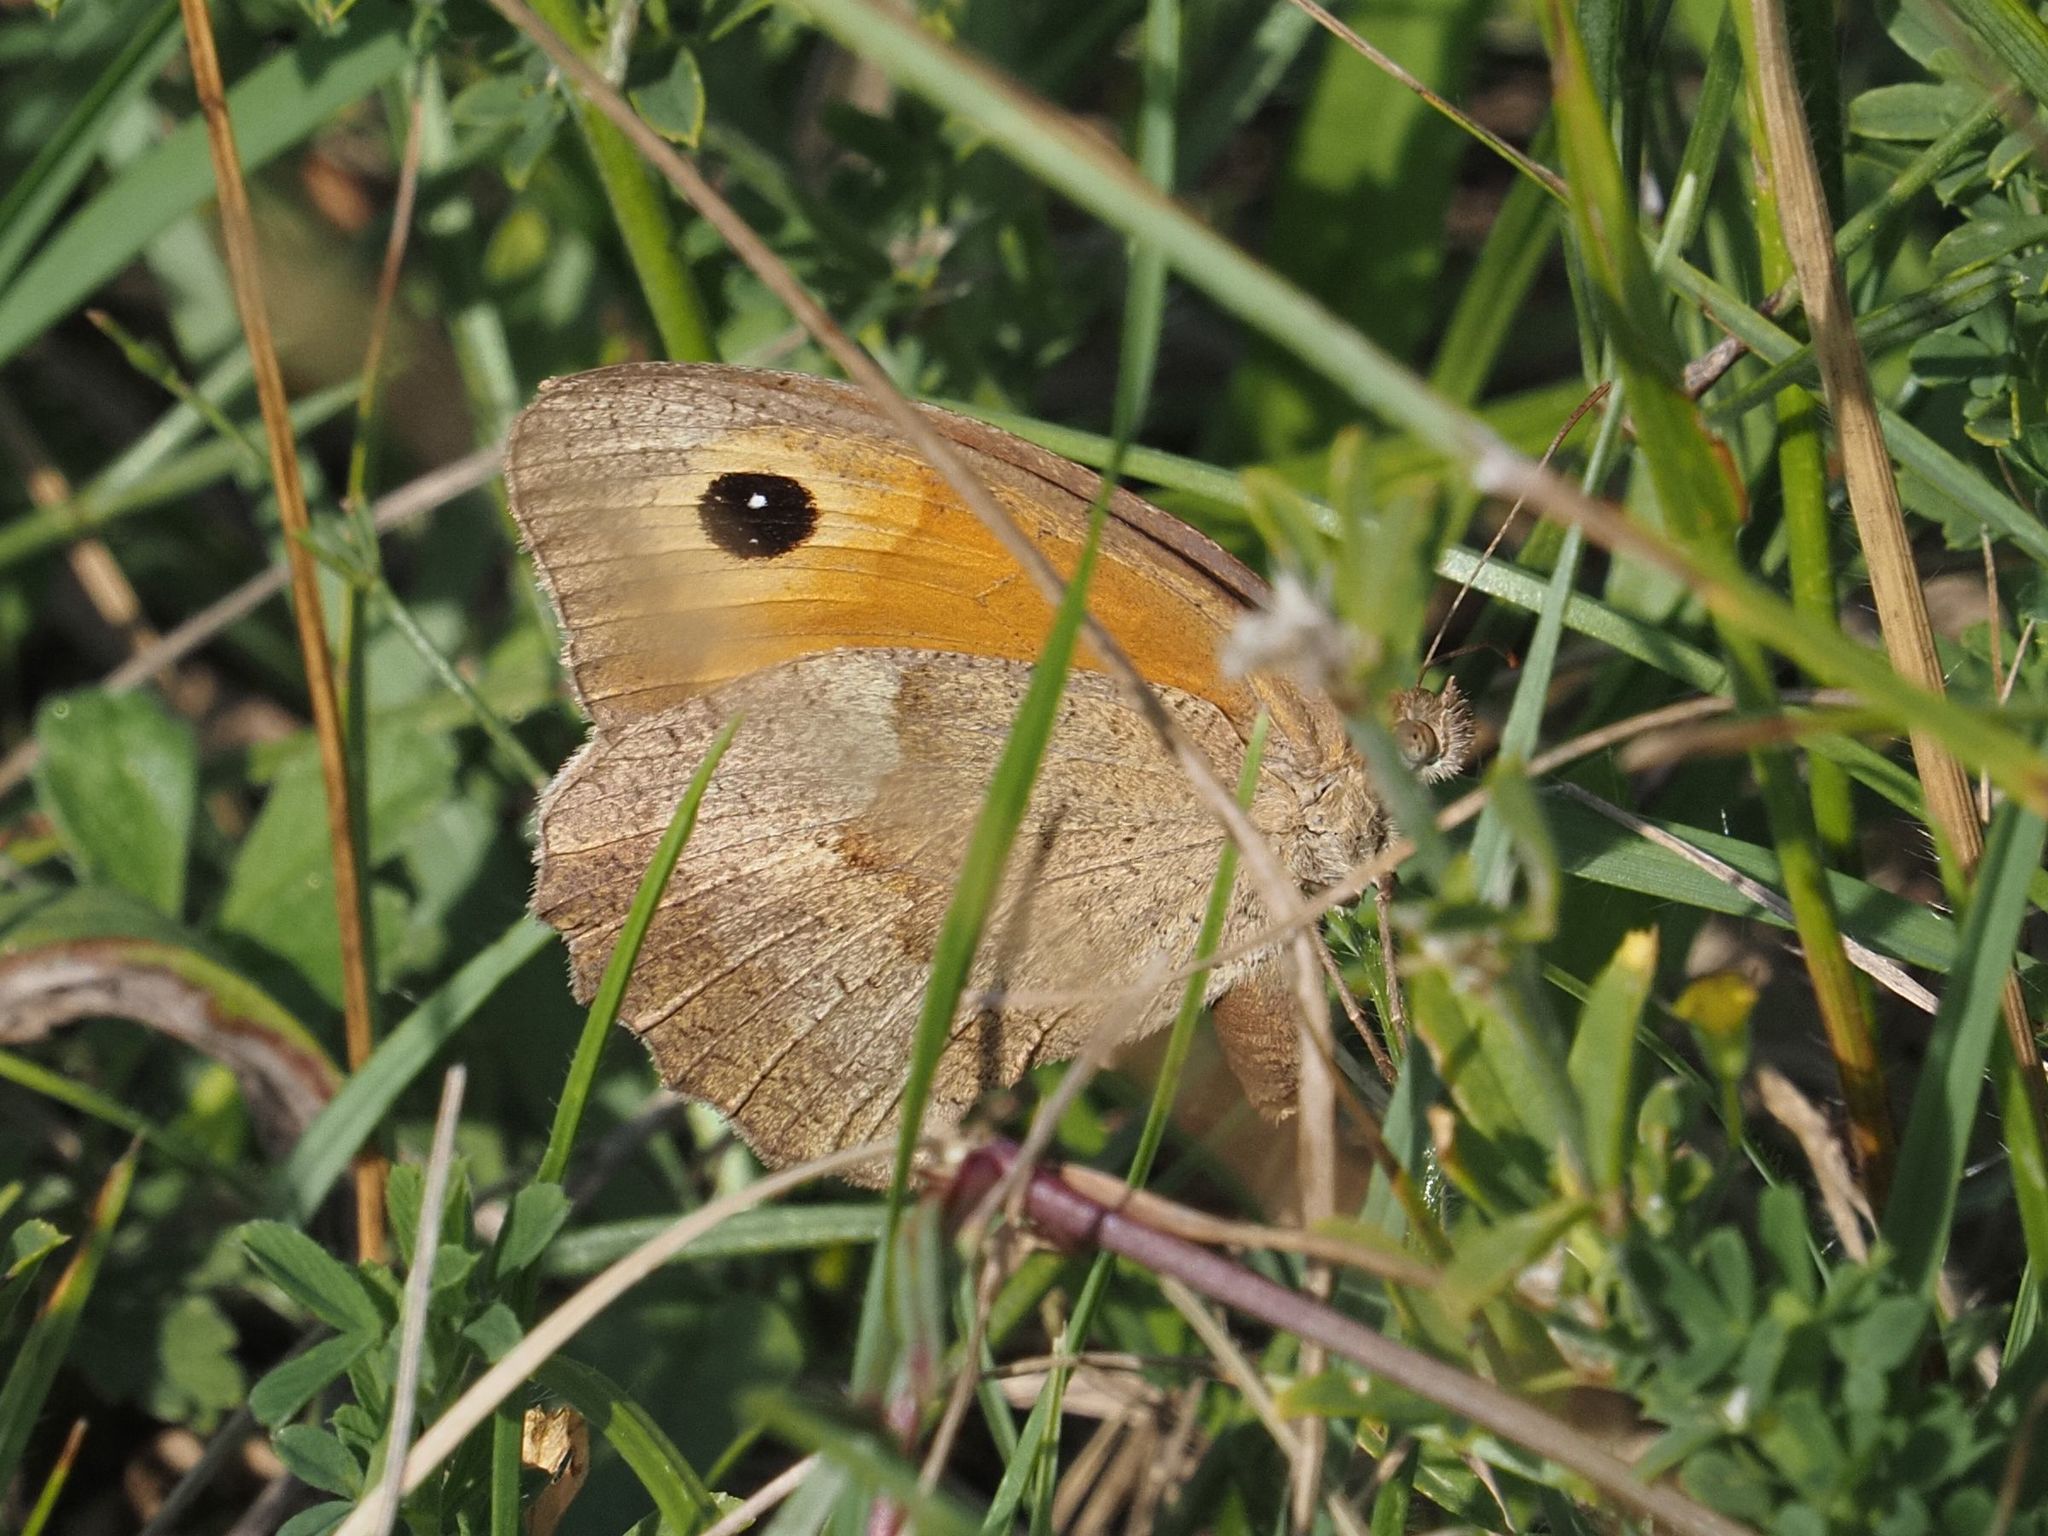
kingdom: Animalia
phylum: Arthropoda
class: Insecta
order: Lepidoptera
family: Nymphalidae
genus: Maniola
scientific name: Maniola jurtina
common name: Meadow brown
